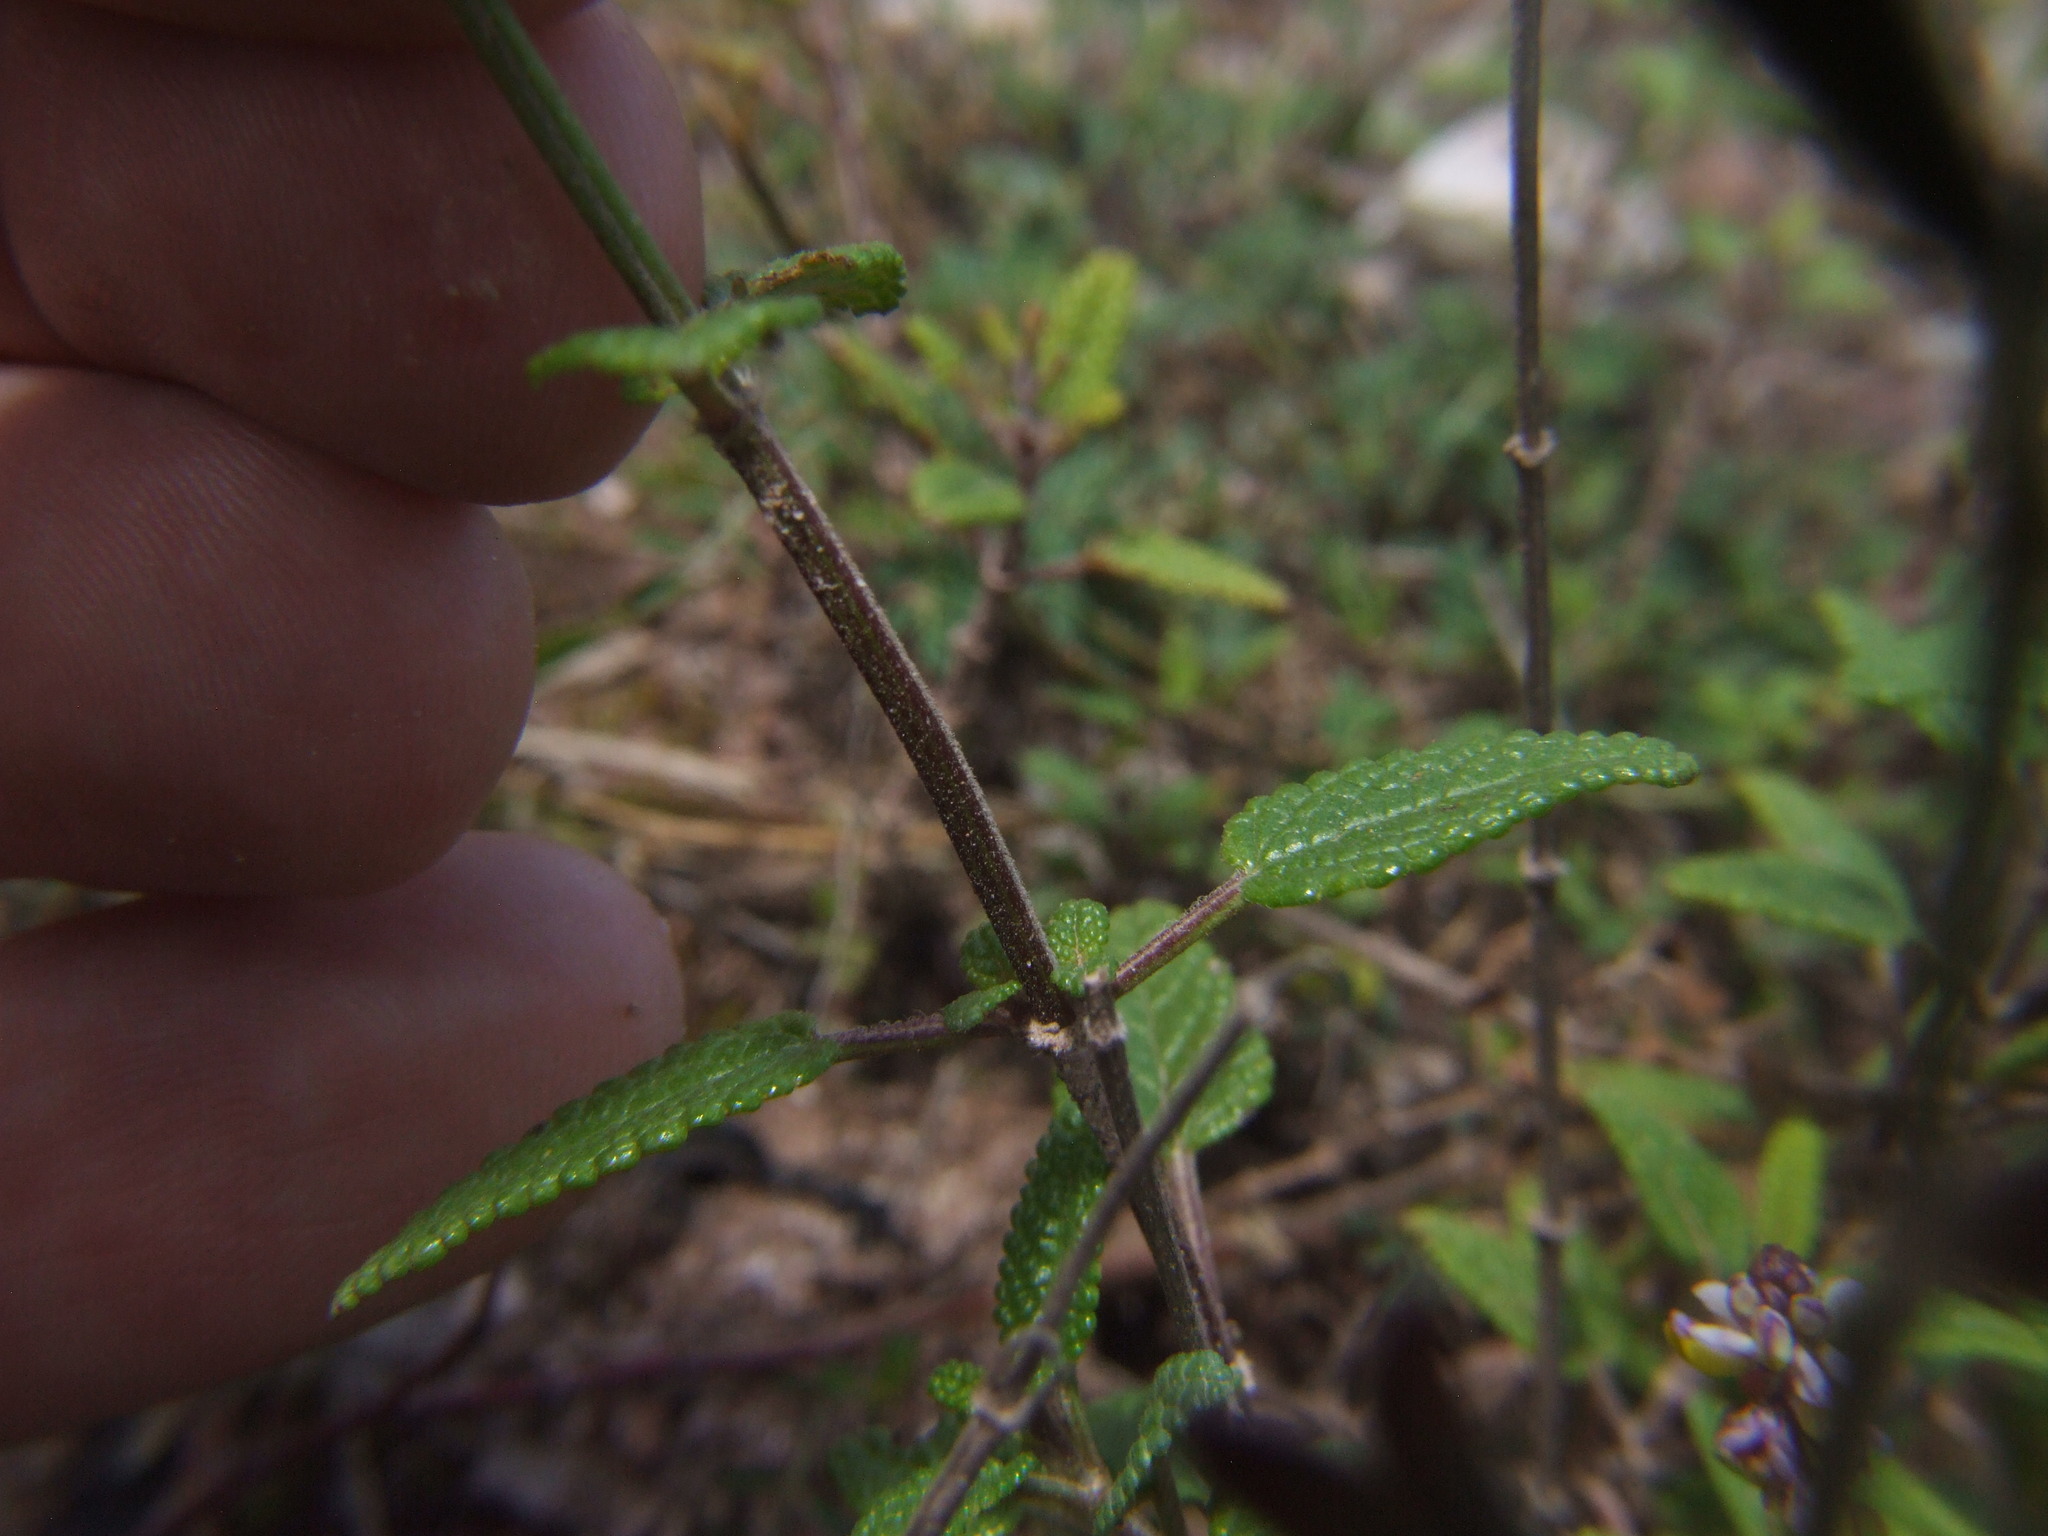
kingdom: Plantae
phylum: Tracheophyta
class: Magnoliopsida
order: Lamiales
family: Lamiaceae
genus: Salvia
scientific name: Salvia oppositiflora
